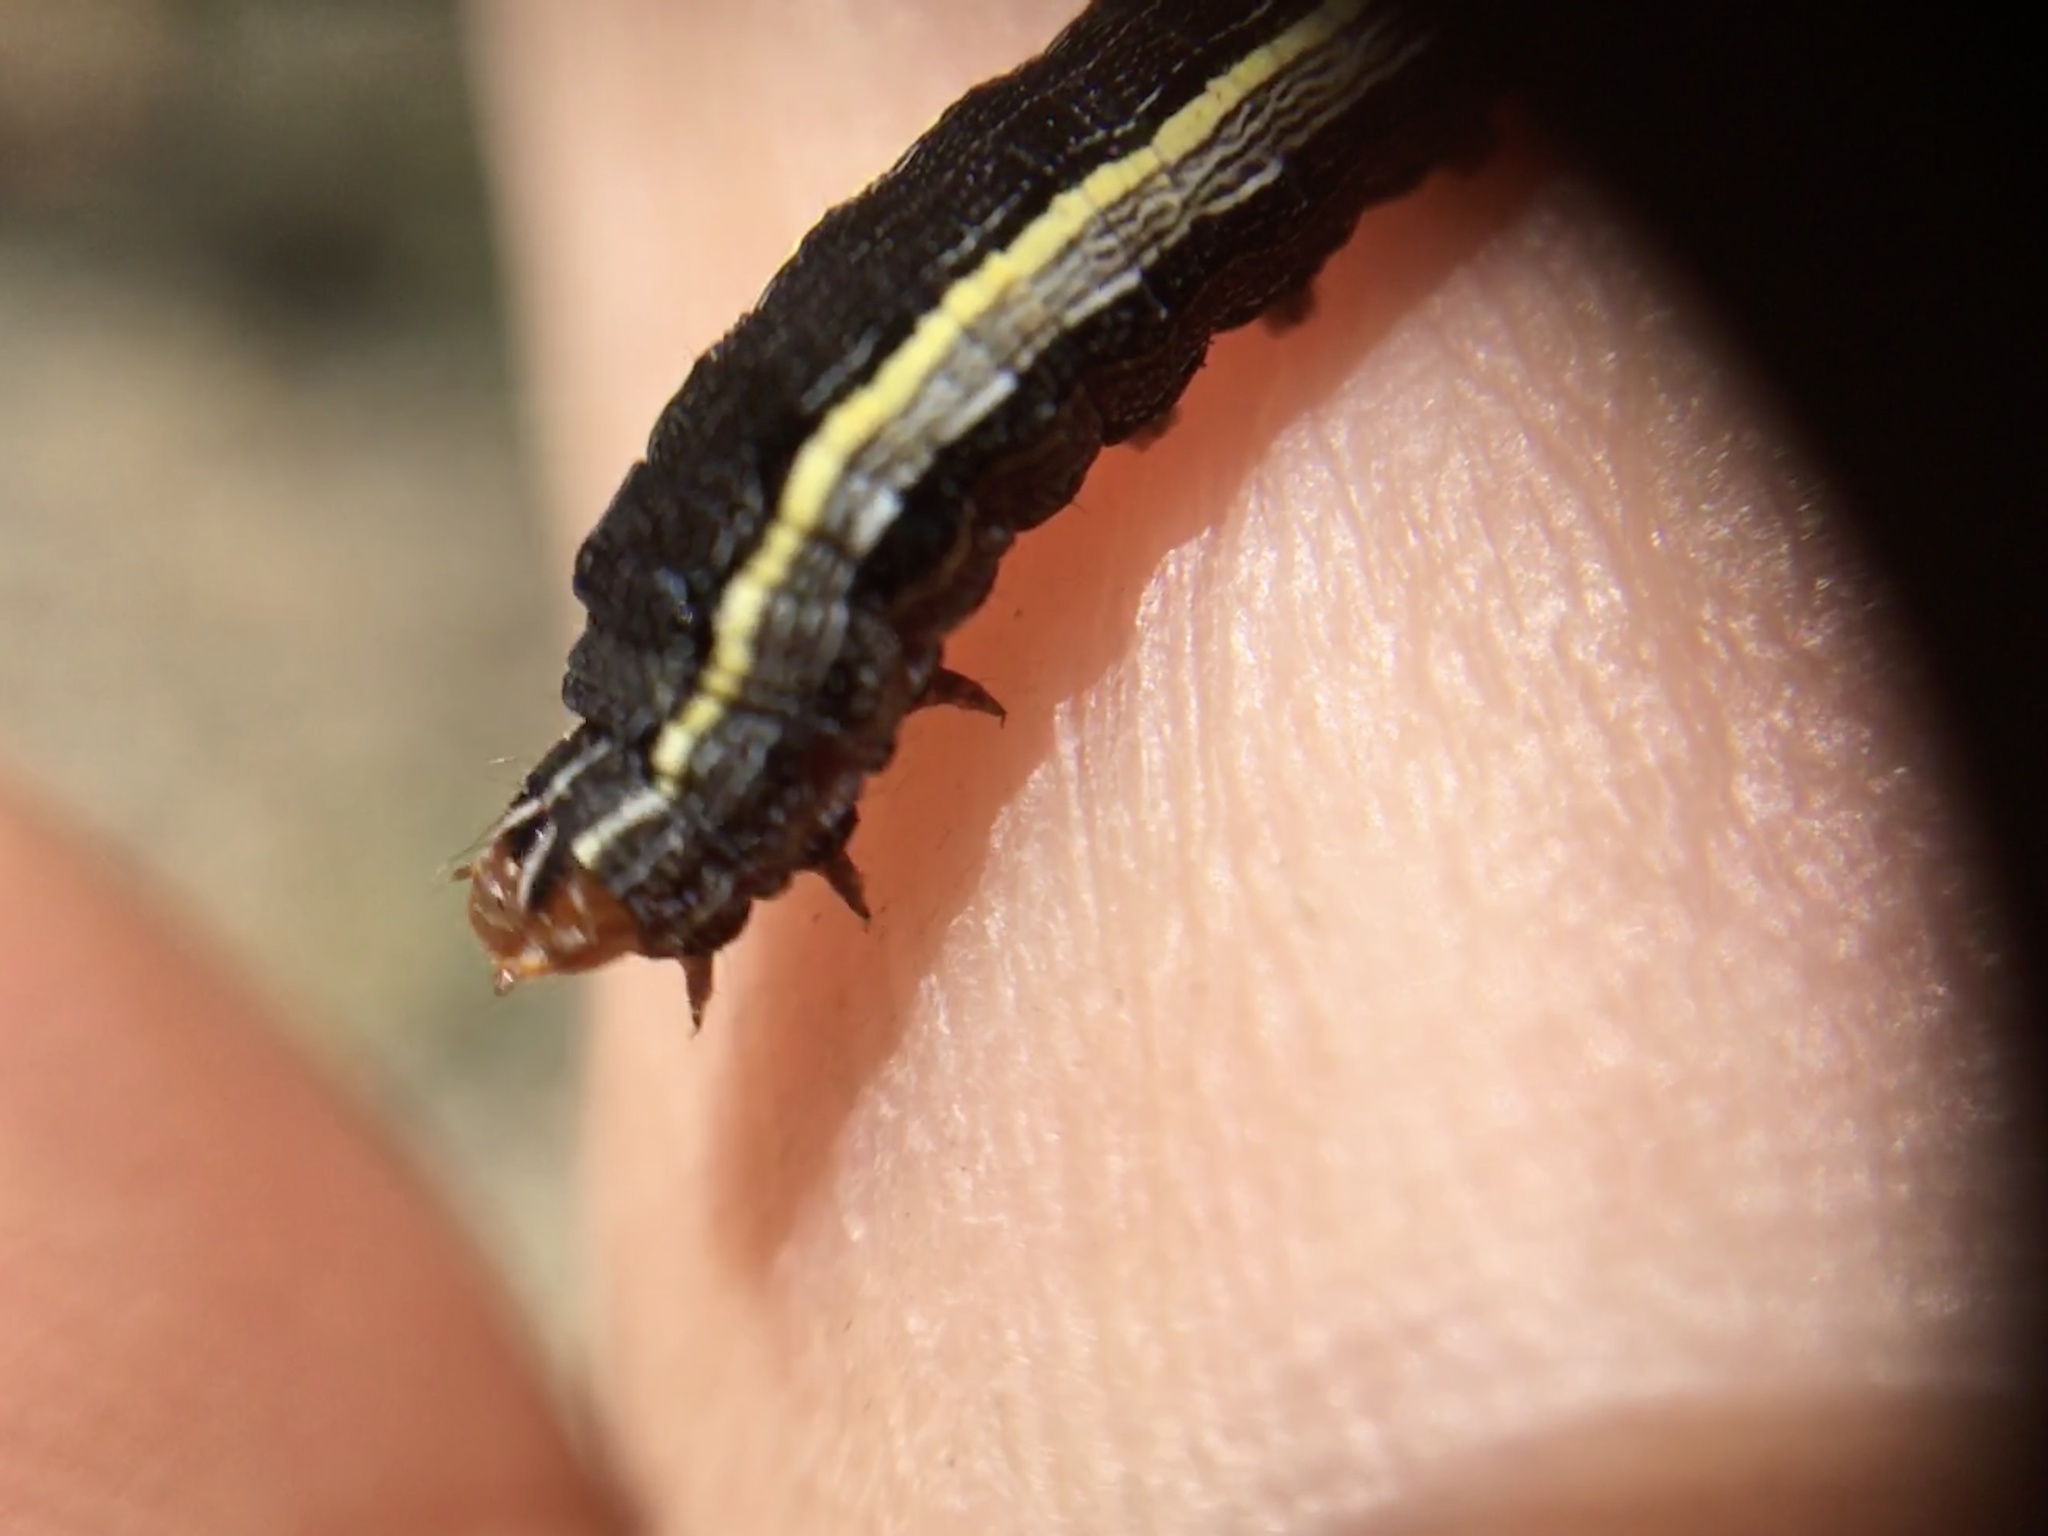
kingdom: Animalia
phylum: Arthropoda
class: Insecta
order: Lepidoptera
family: Noctuidae
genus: Spodoptera
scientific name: Spodoptera ornithogalli
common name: Yellow-striped armyworm
